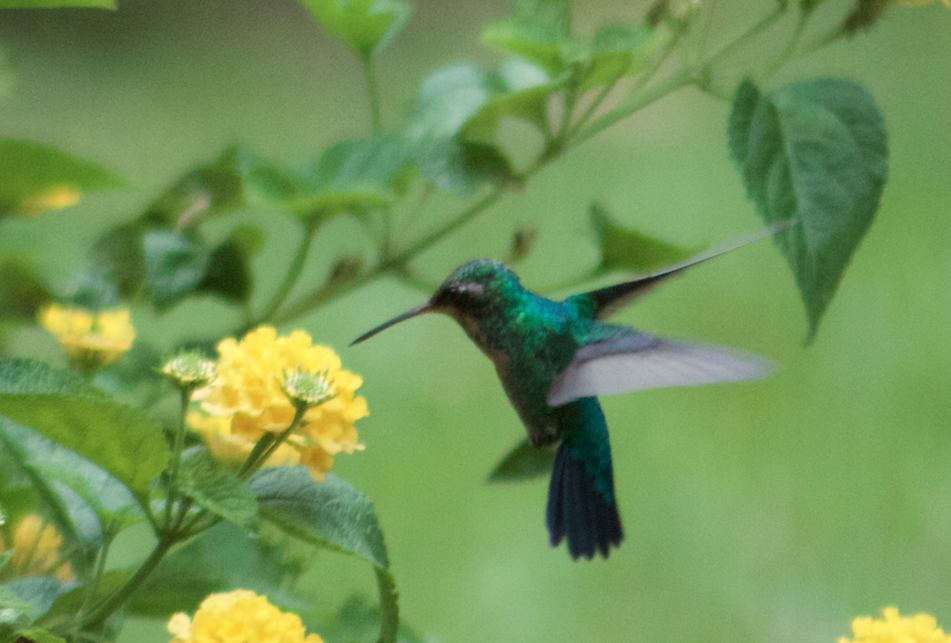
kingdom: Animalia
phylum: Chordata
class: Aves
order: Apodiformes
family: Trochilidae
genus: Chlorostilbon
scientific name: Chlorostilbon lucidus
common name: Glittering-bellied emerald
